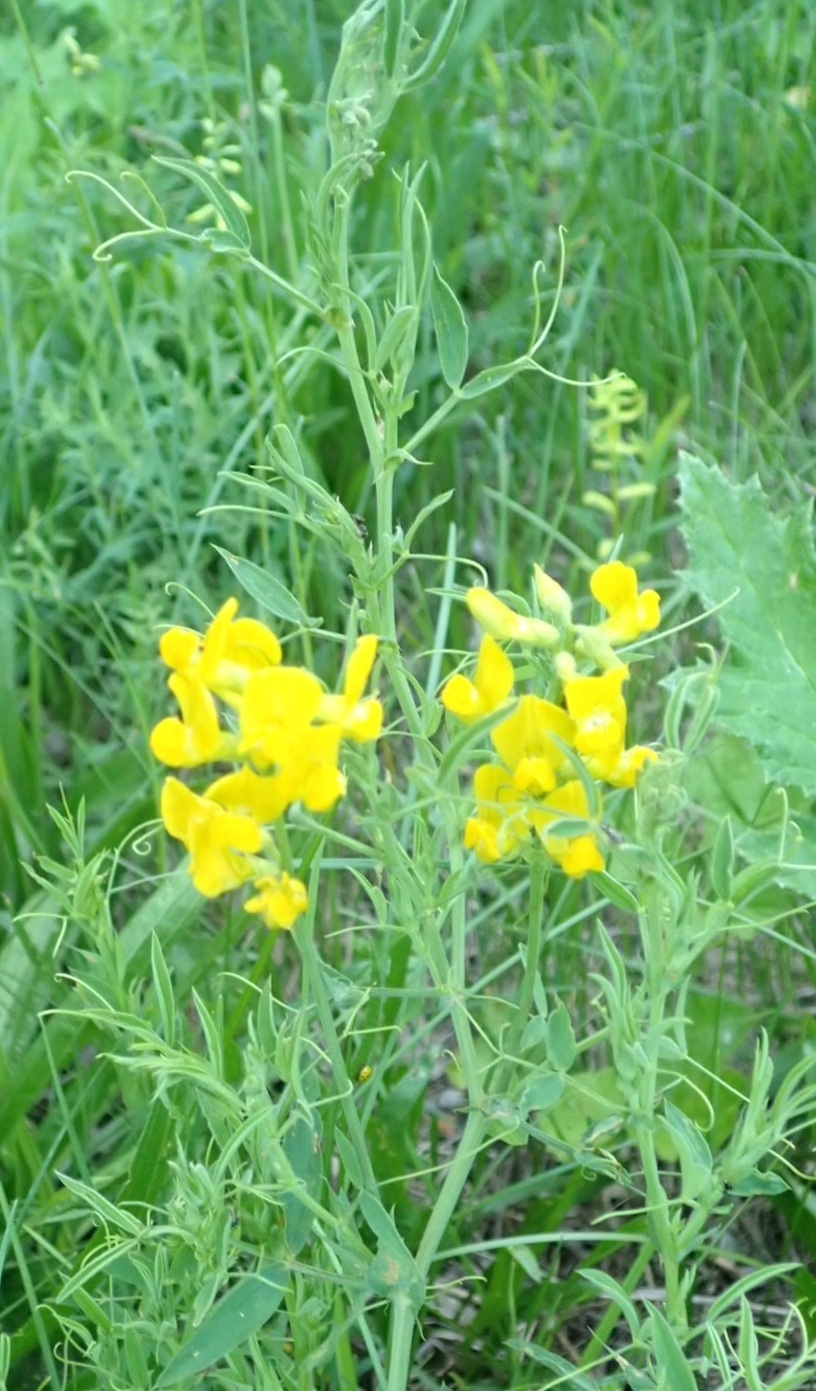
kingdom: Plantae
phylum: Tracheophyta
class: Magnoliopsida
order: Fabales
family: Fabaceae
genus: Lathyrus
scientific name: Lathyrus pratensis
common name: Meadow vetchling
